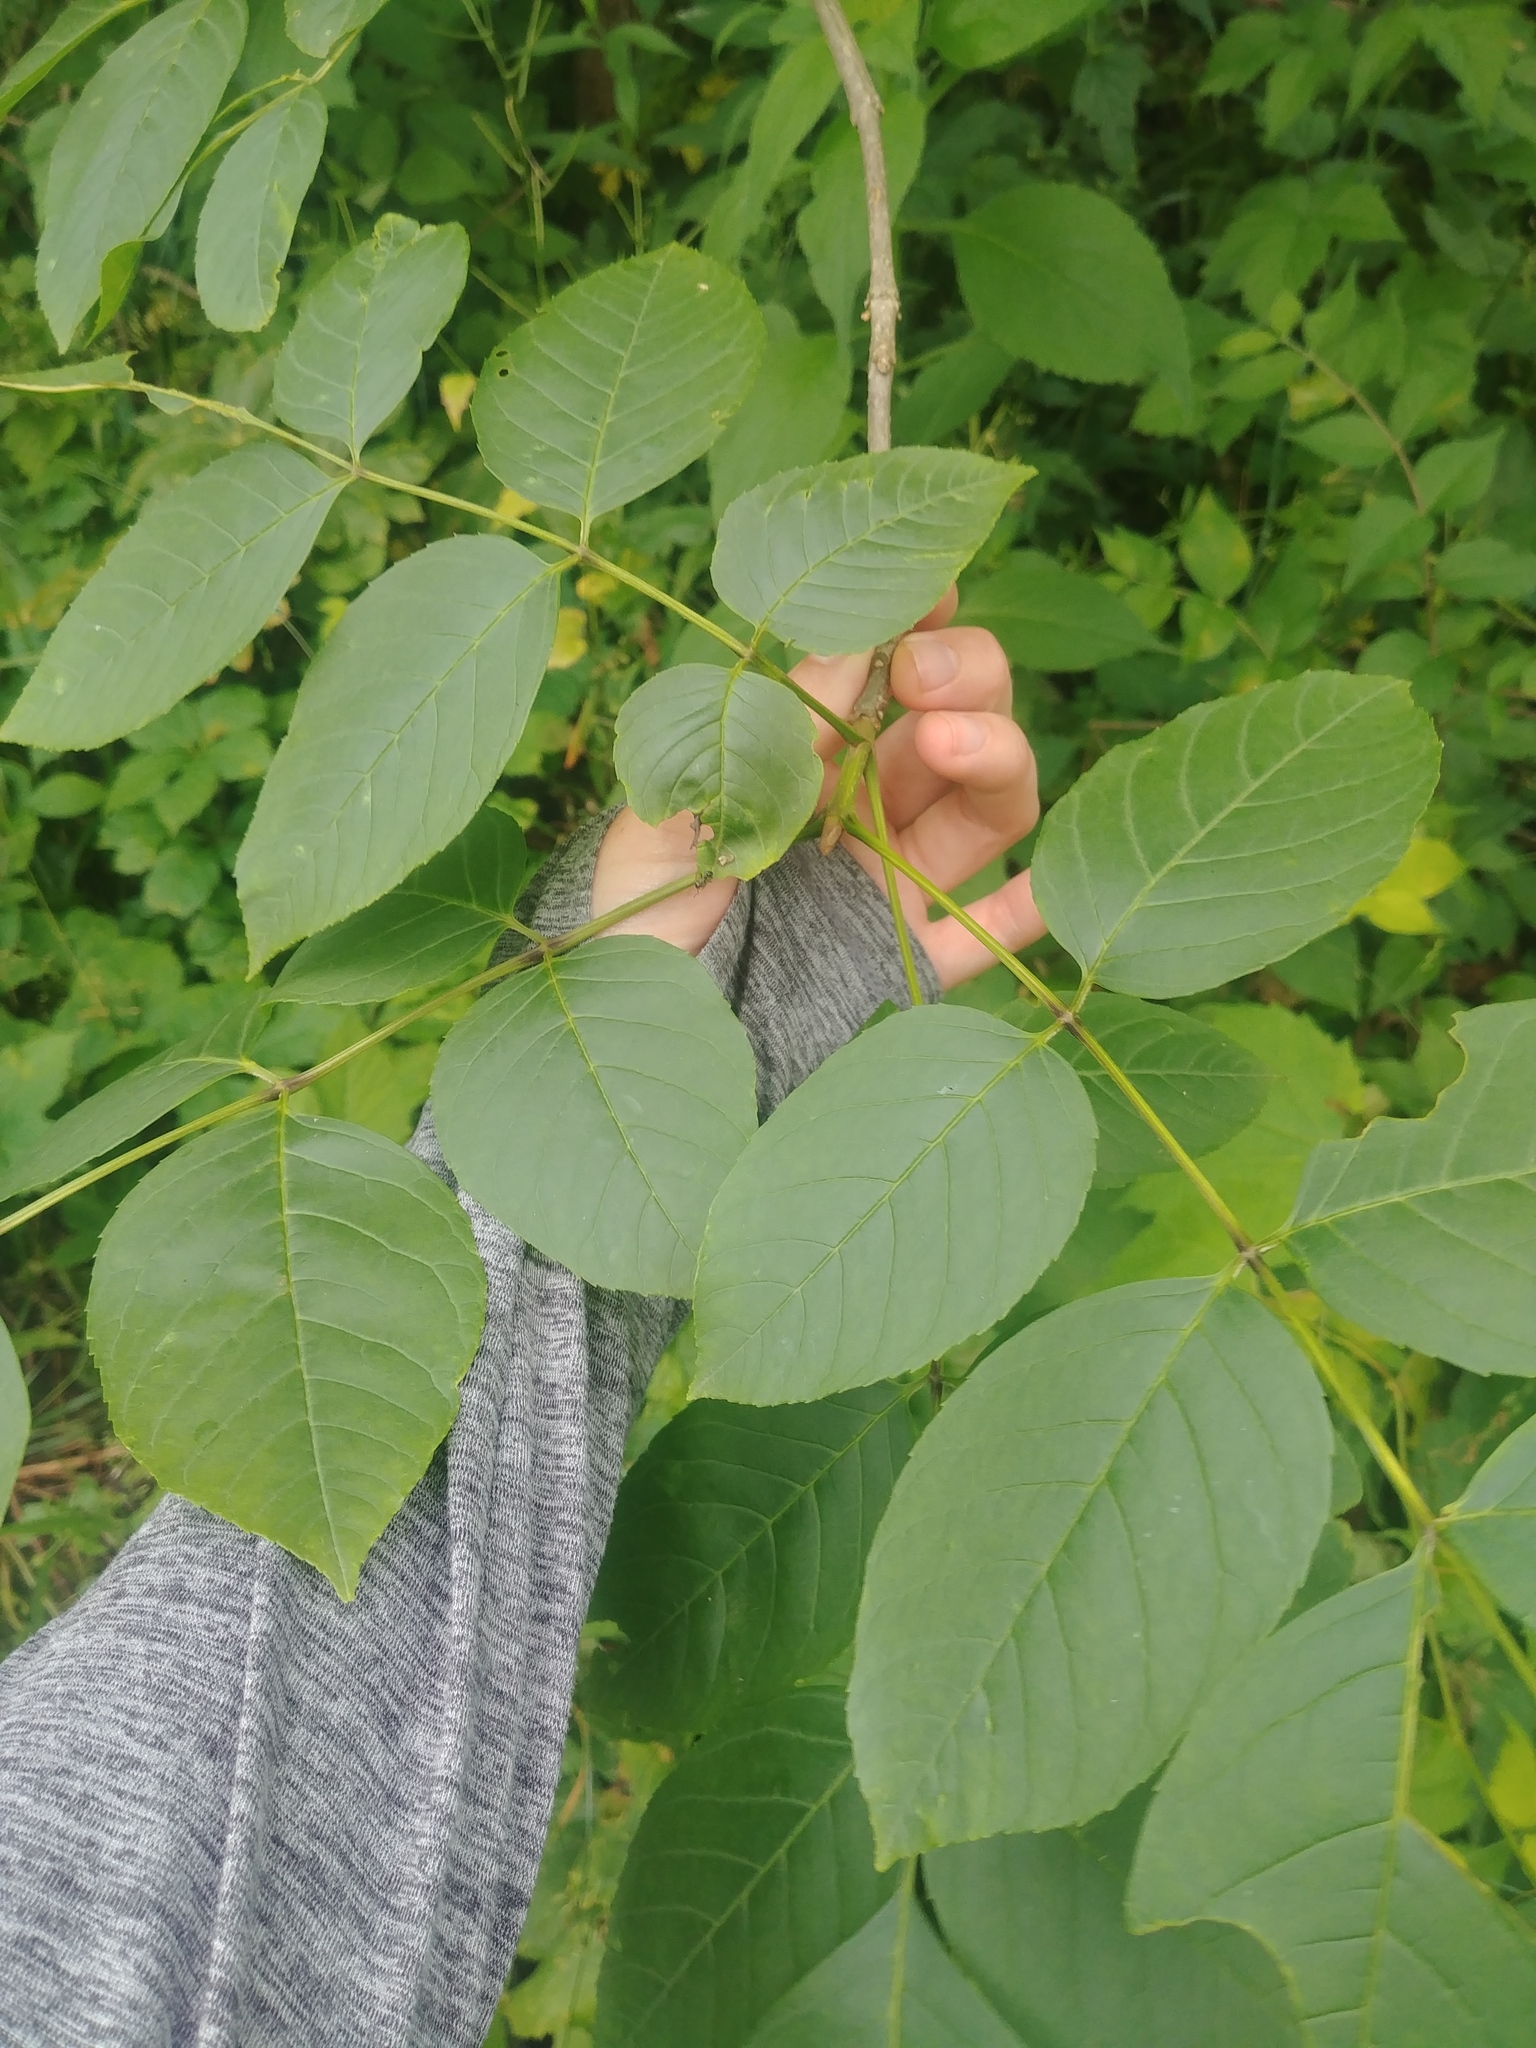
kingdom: Plantae
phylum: Tracheophyta
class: Magnoliopsida
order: Lamiales
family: Oleaceae
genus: Fraxinus
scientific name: Fraxinus quadrangulata
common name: Blue ash
